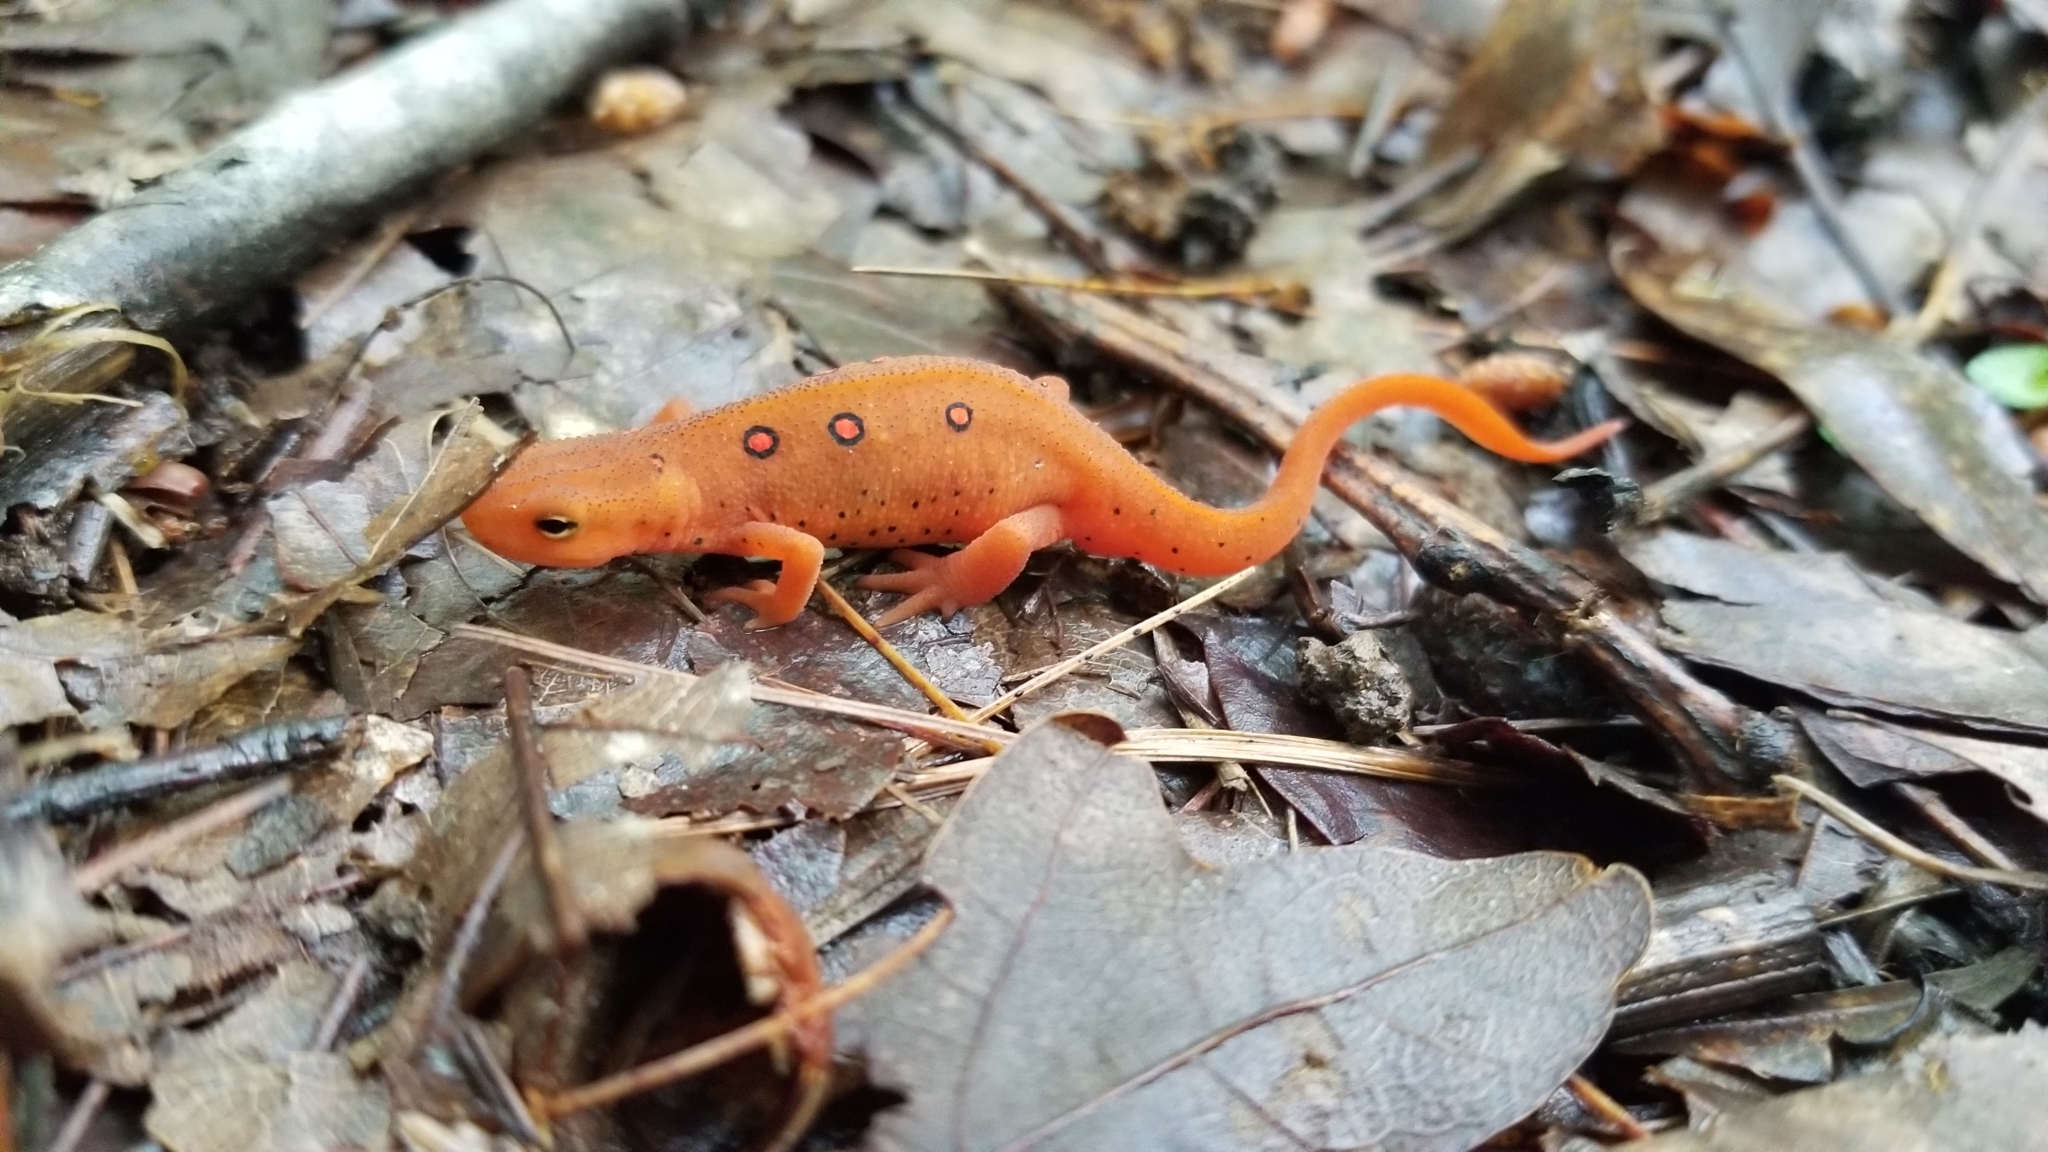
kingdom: Animalia
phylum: Chordata
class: Amphibia
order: Caudata
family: Salamandridae
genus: Notophthalmus
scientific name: Notophthalmus viridescens
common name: Eastern newt
